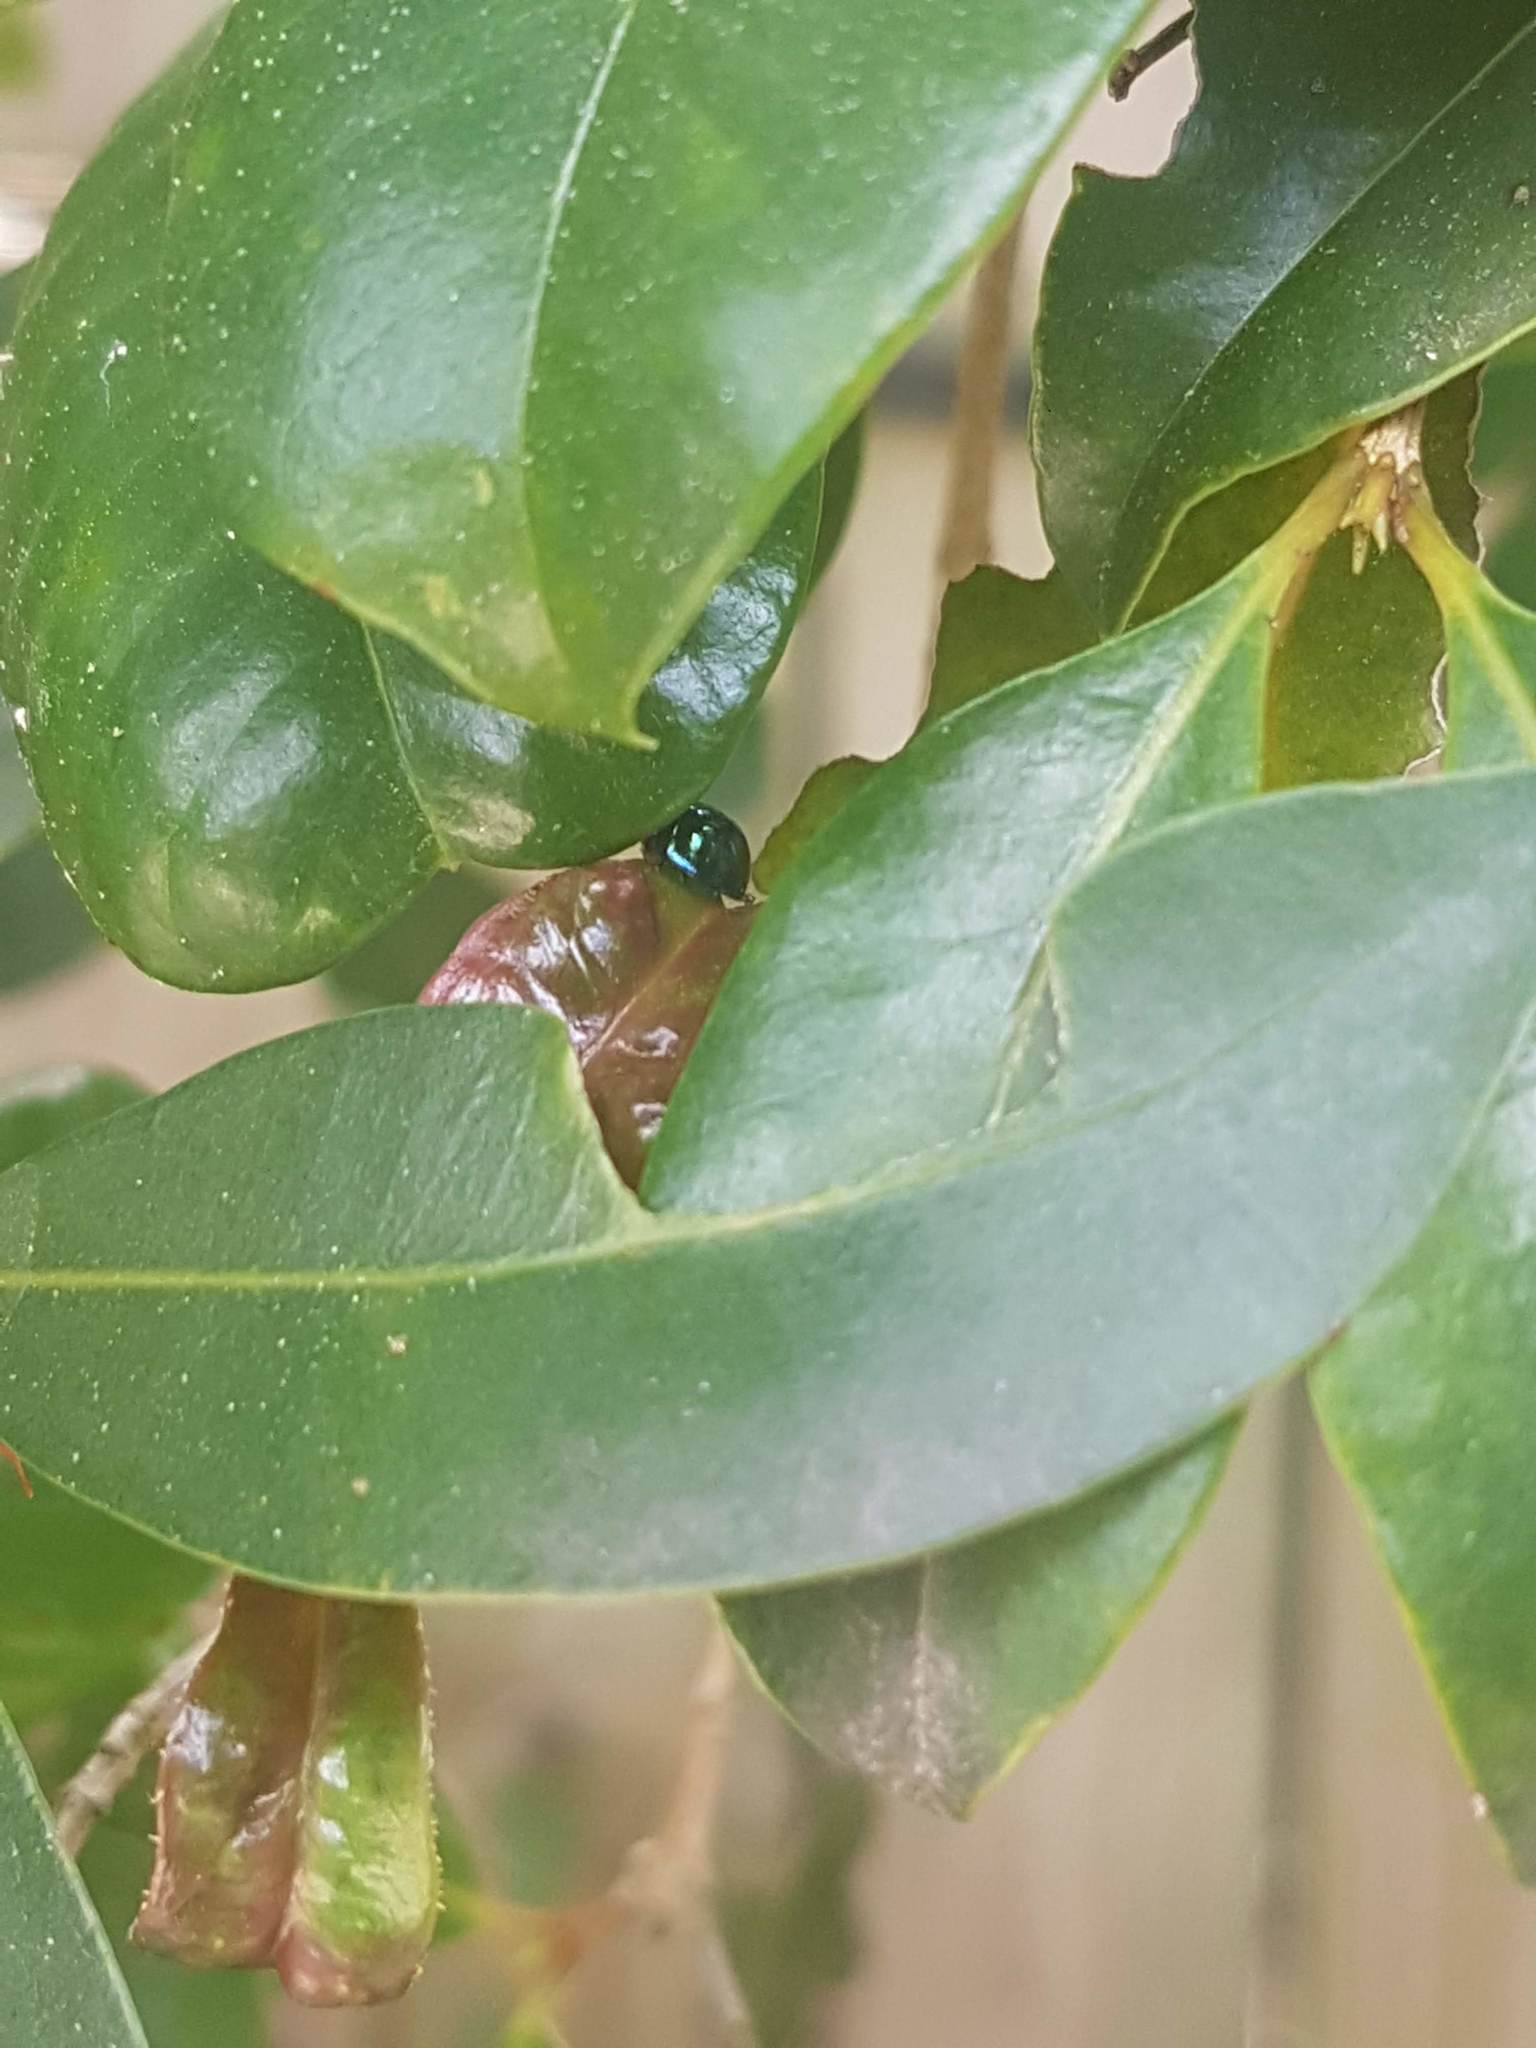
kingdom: Animalia
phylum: Arthropoda
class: Insecta
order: Coleoptera
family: Coccinellidae
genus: Halmus
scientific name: Halmus chalybeus
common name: Steel blue ladybird beetle
